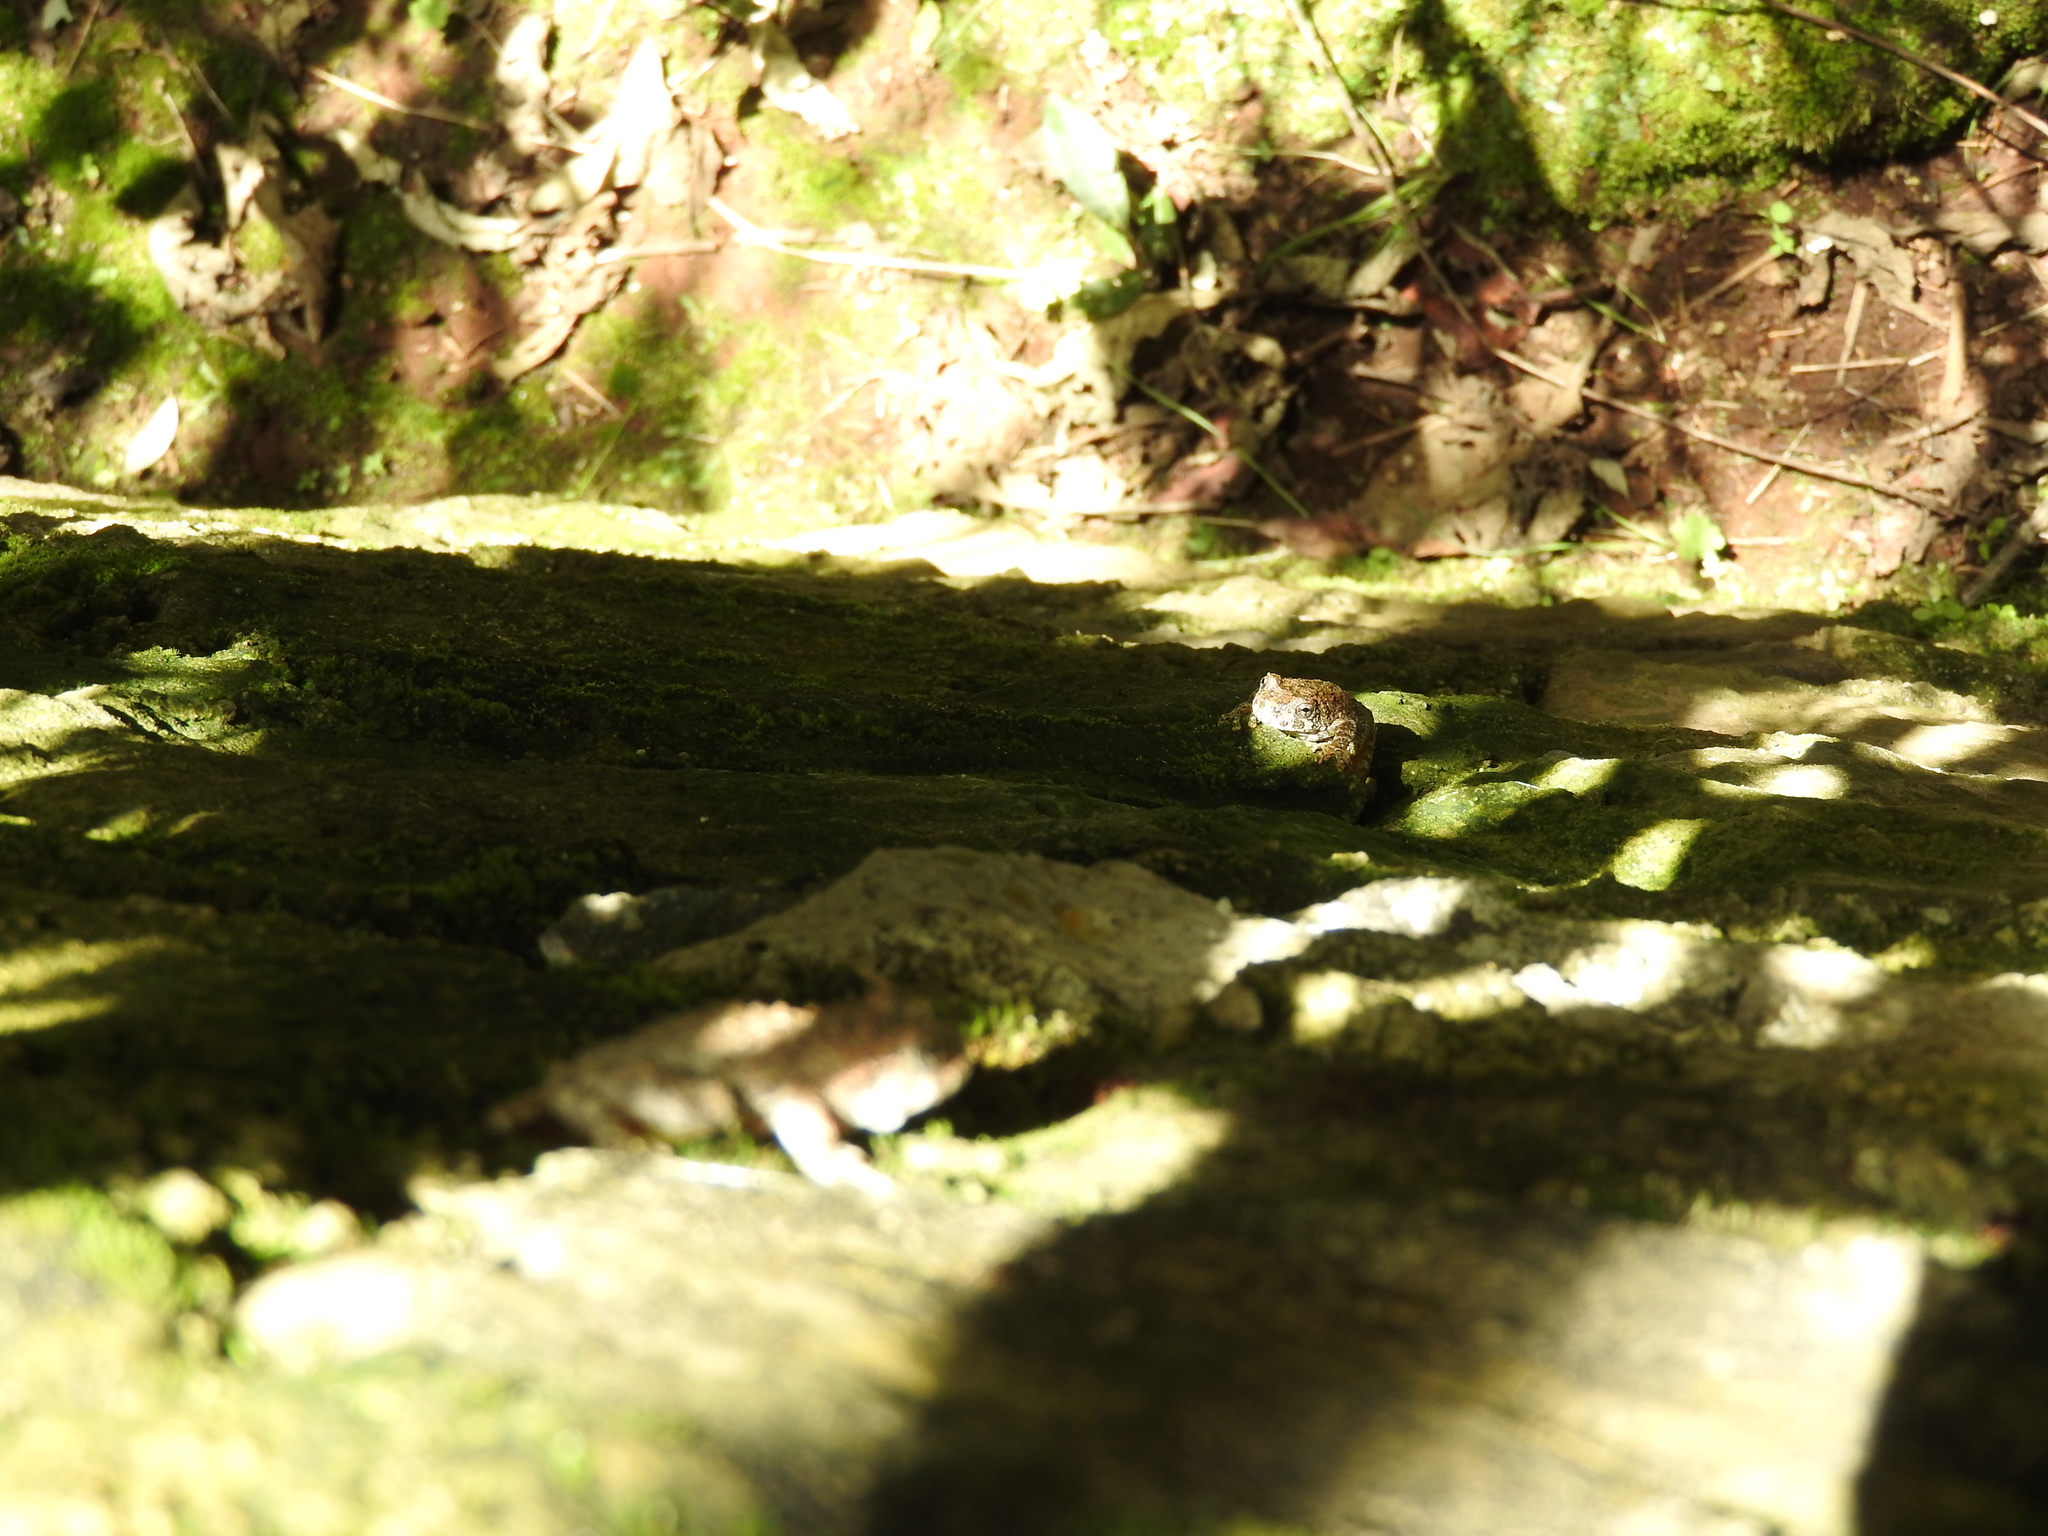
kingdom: Animalia
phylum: Chordata
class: Amphibia
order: Anura
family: Hylidae
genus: Dryophytes
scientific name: Dryophytes arenicolor
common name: Canyon treefrog
